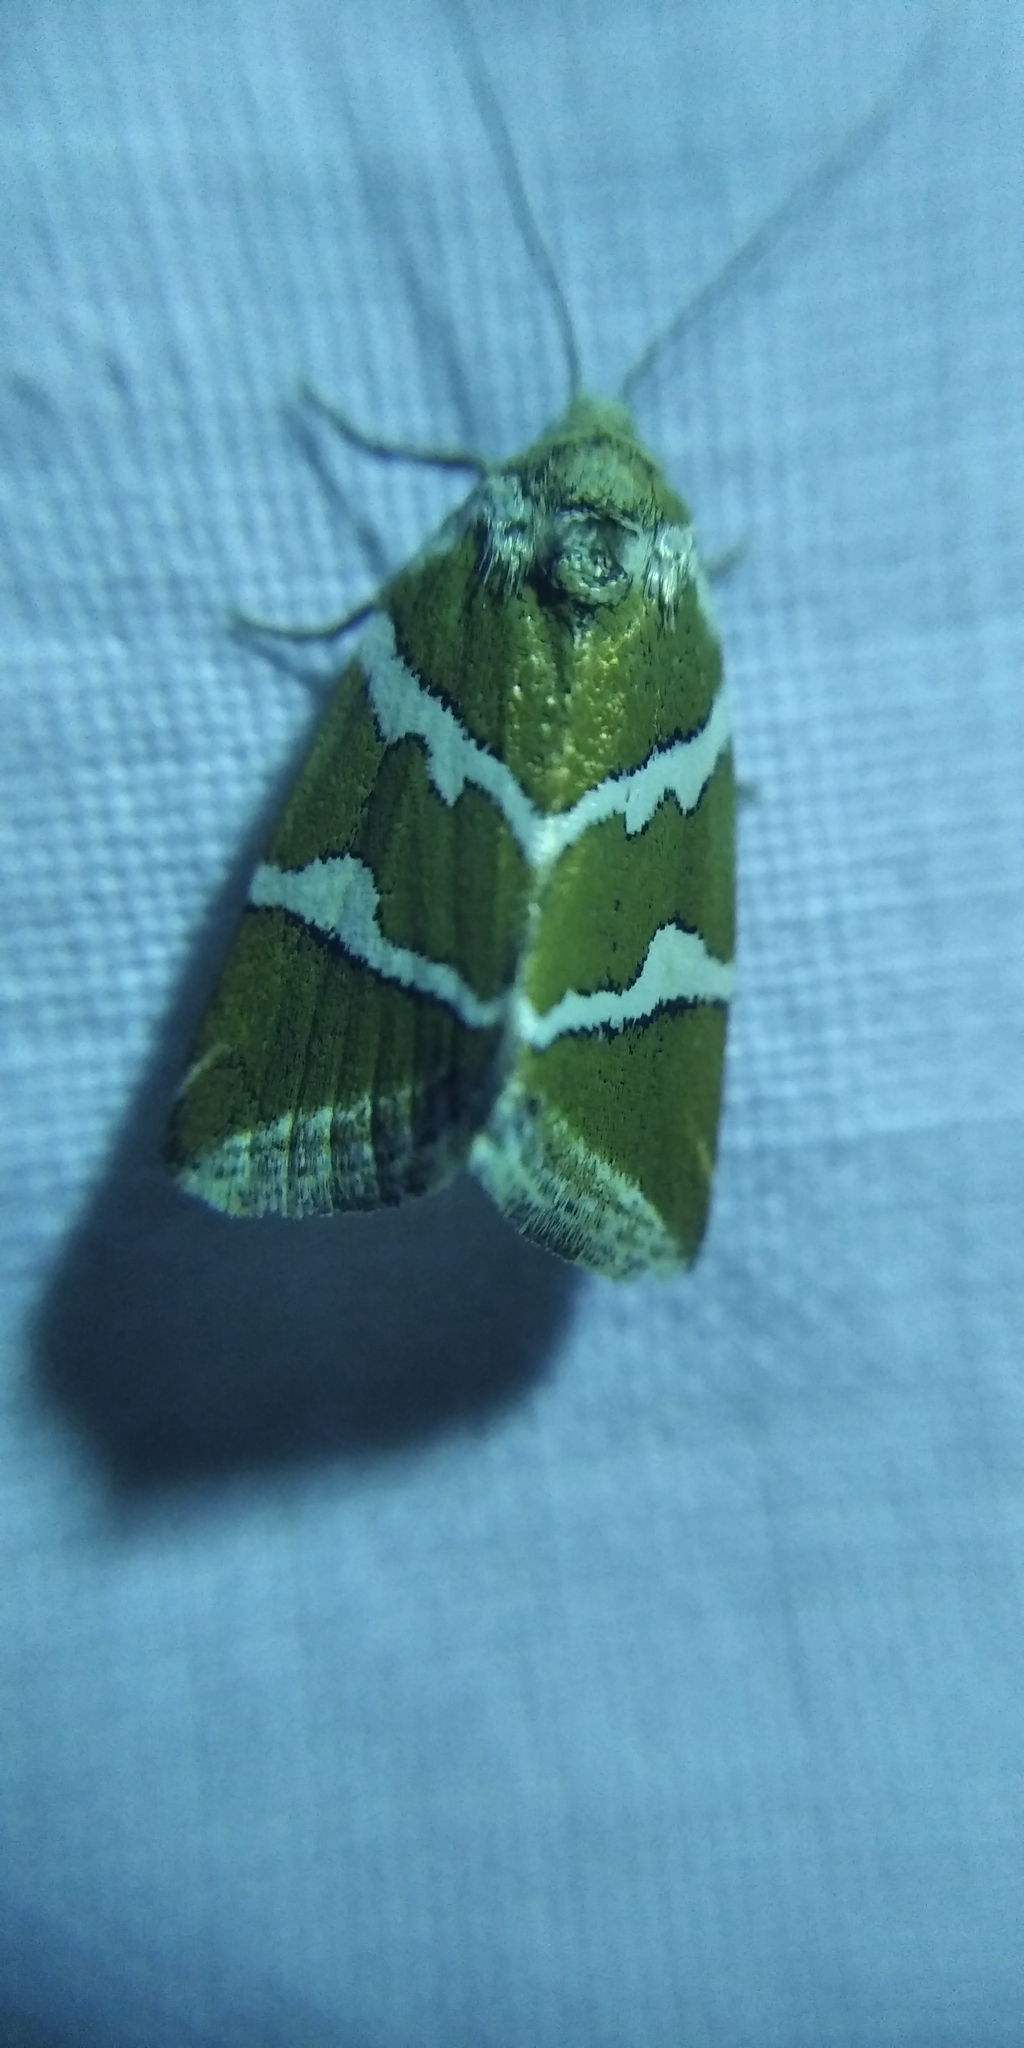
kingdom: Animalia
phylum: Arthropoda
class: Insecta
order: Lepidoptera
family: Noctuidae
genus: Deltote
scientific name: Deltote bankiana
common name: Silver barred
